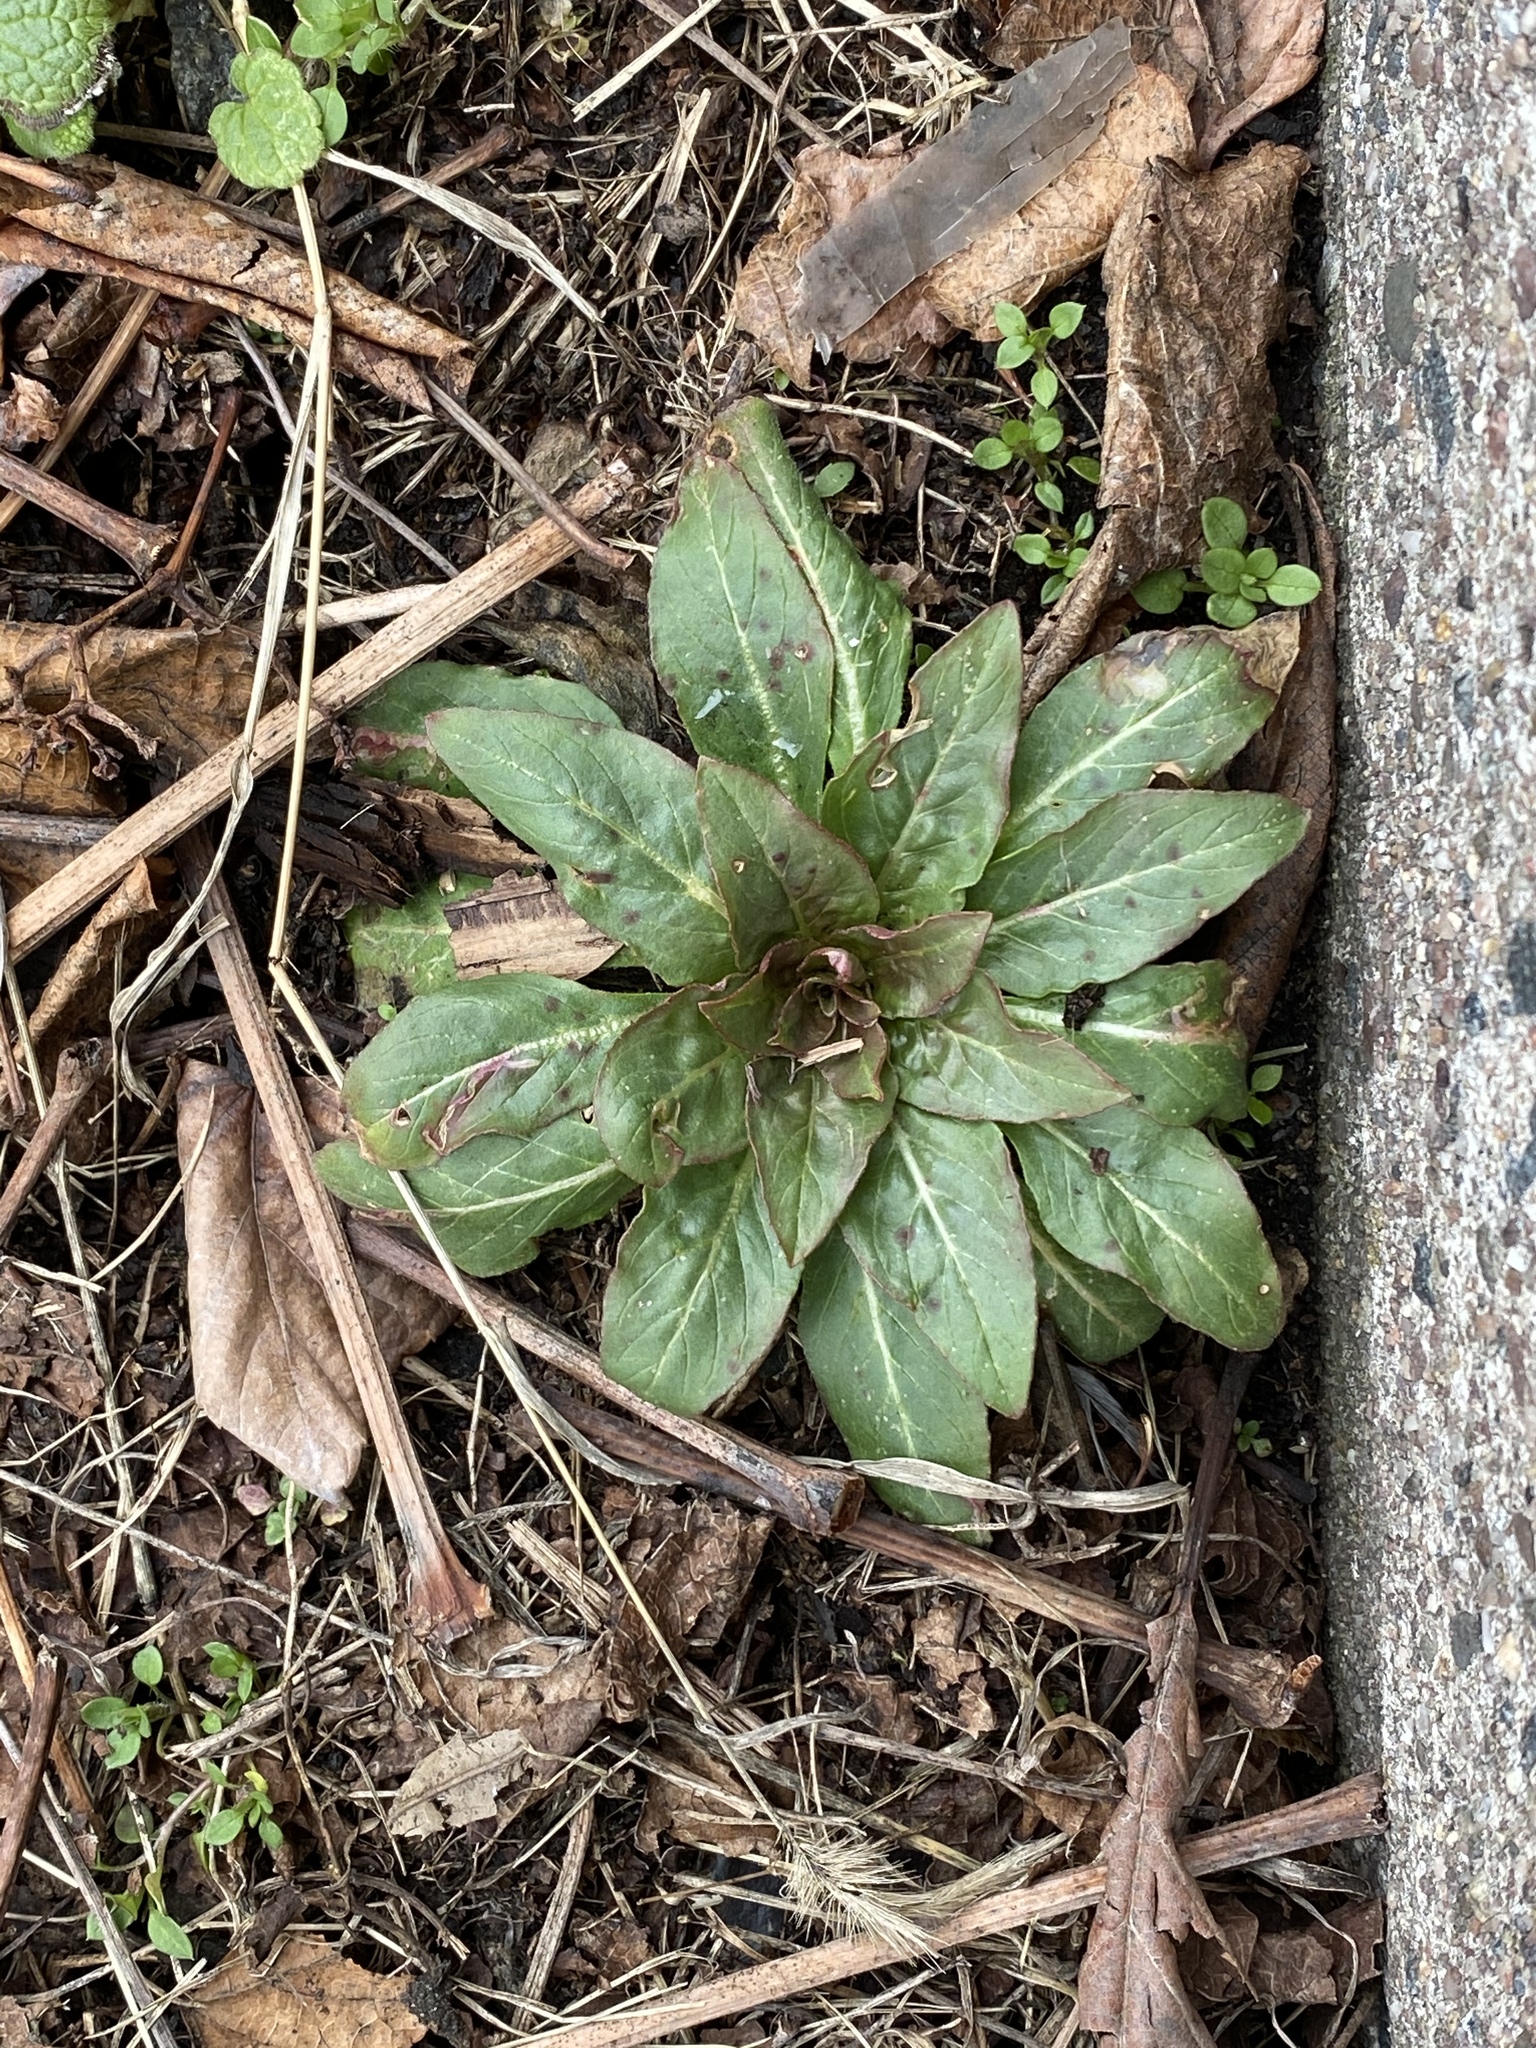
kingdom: Plantae
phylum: Tracheophyta
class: Magnoliopsida
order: Myrtales
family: Onagraceae
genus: Oenothera
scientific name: Oenothera biennis
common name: Common evening-primrose
